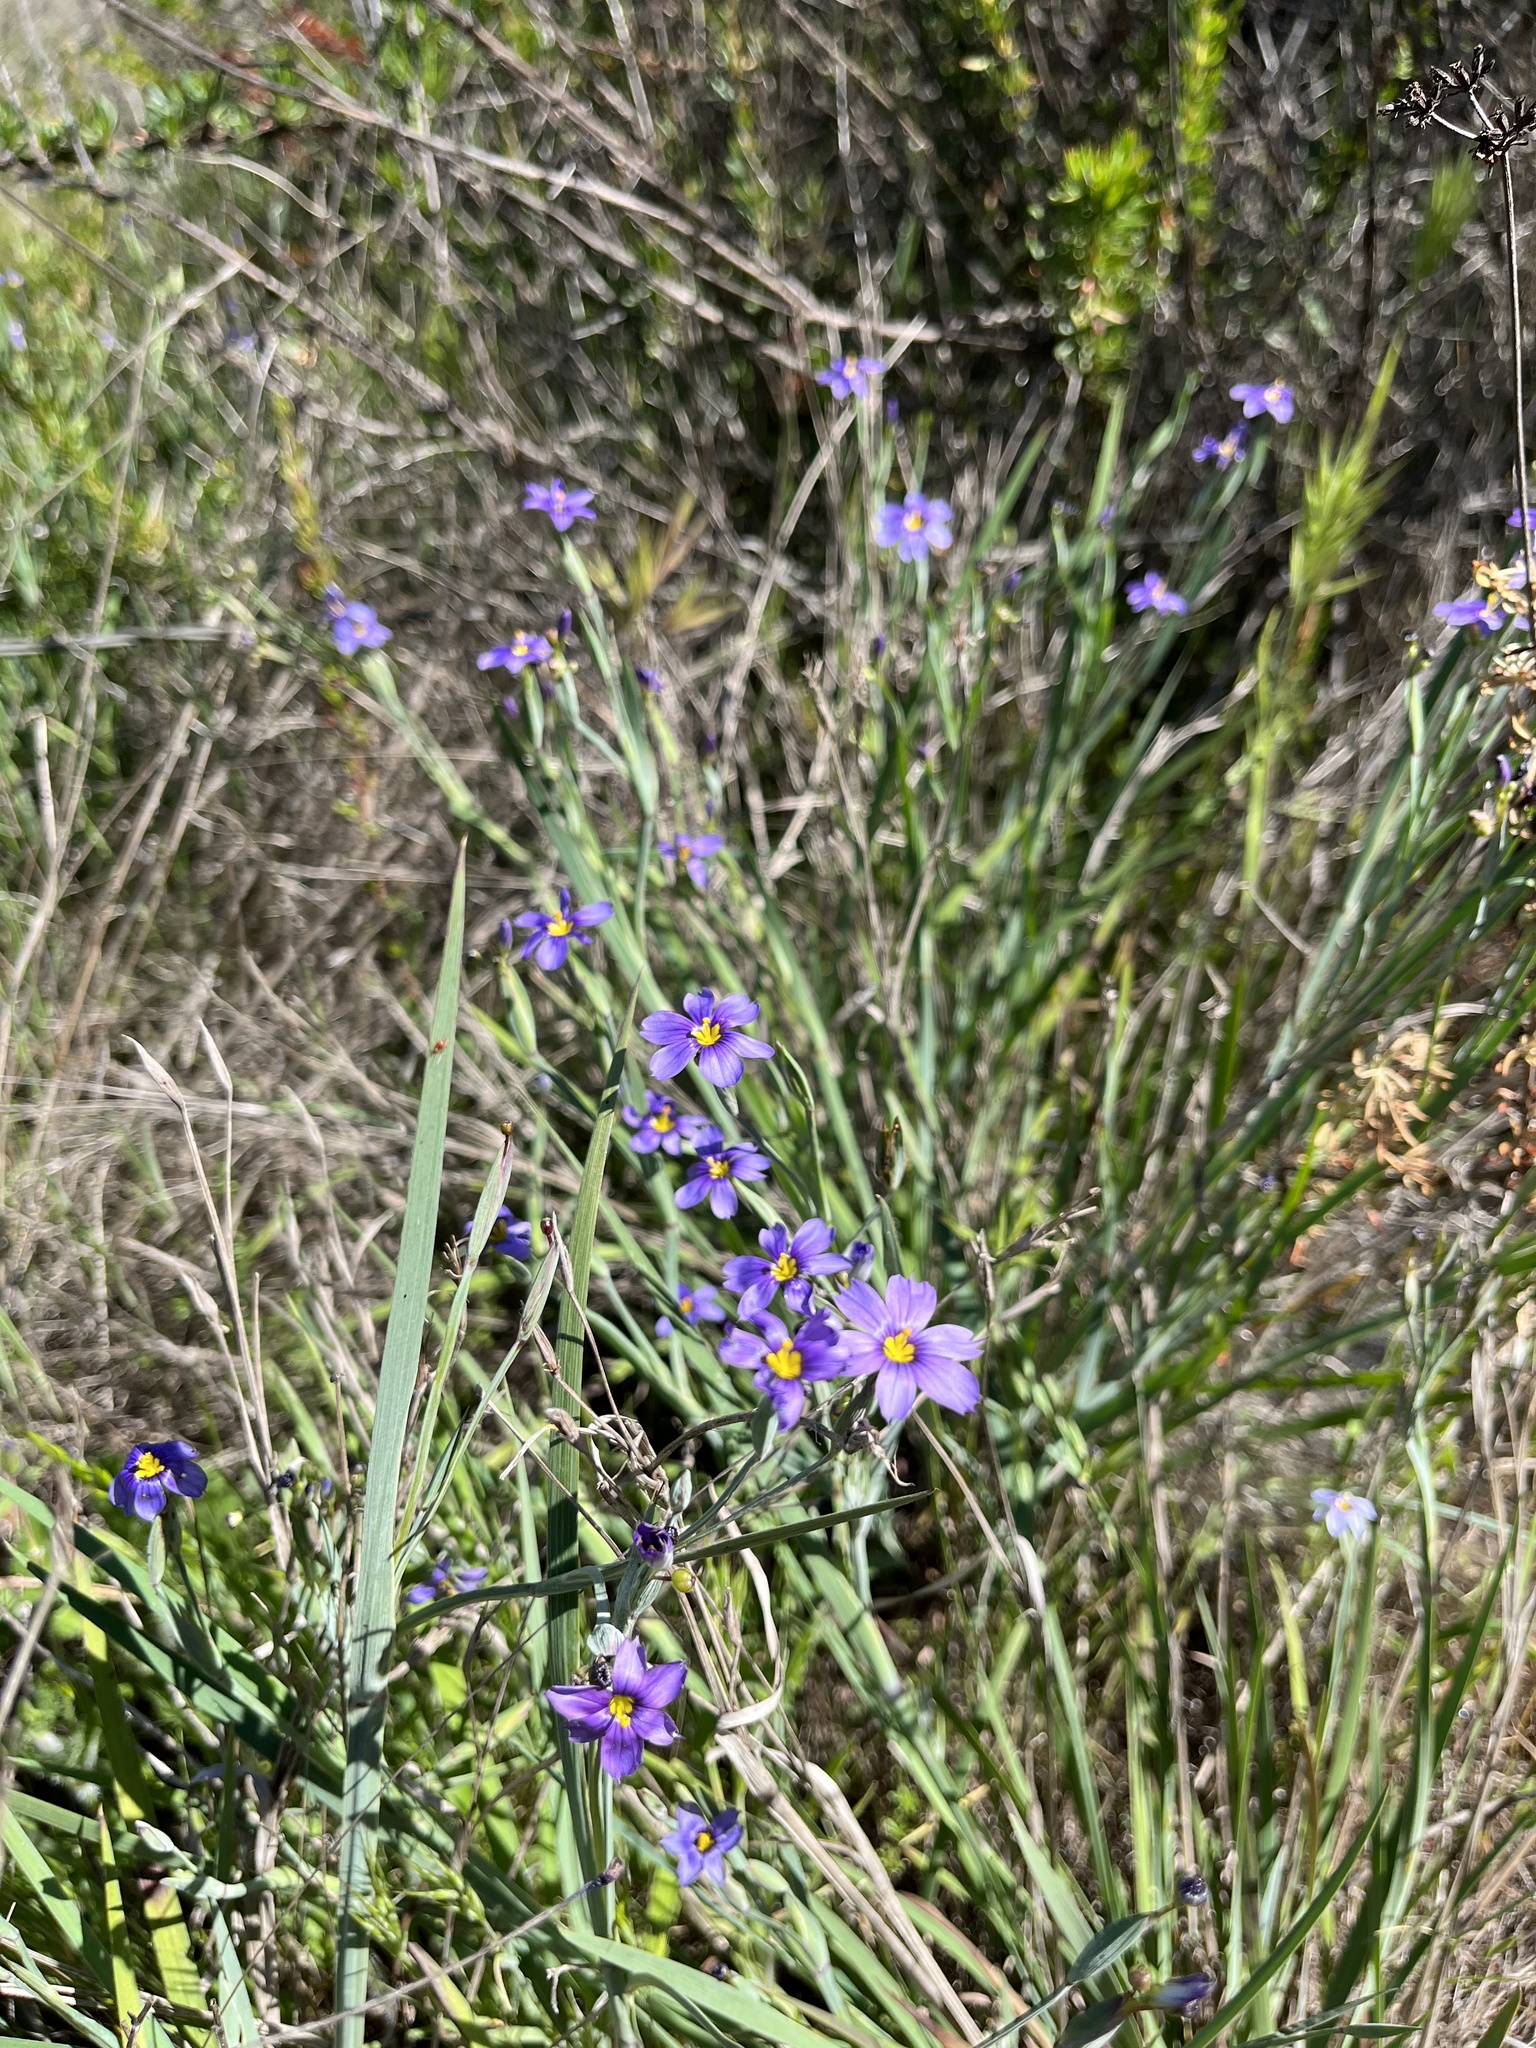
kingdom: Plantae
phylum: Tracheophyta
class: Liliopsida
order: Asparagales
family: Iridaceae
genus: Sisyrinchium
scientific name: Sisyrinchium bellum
